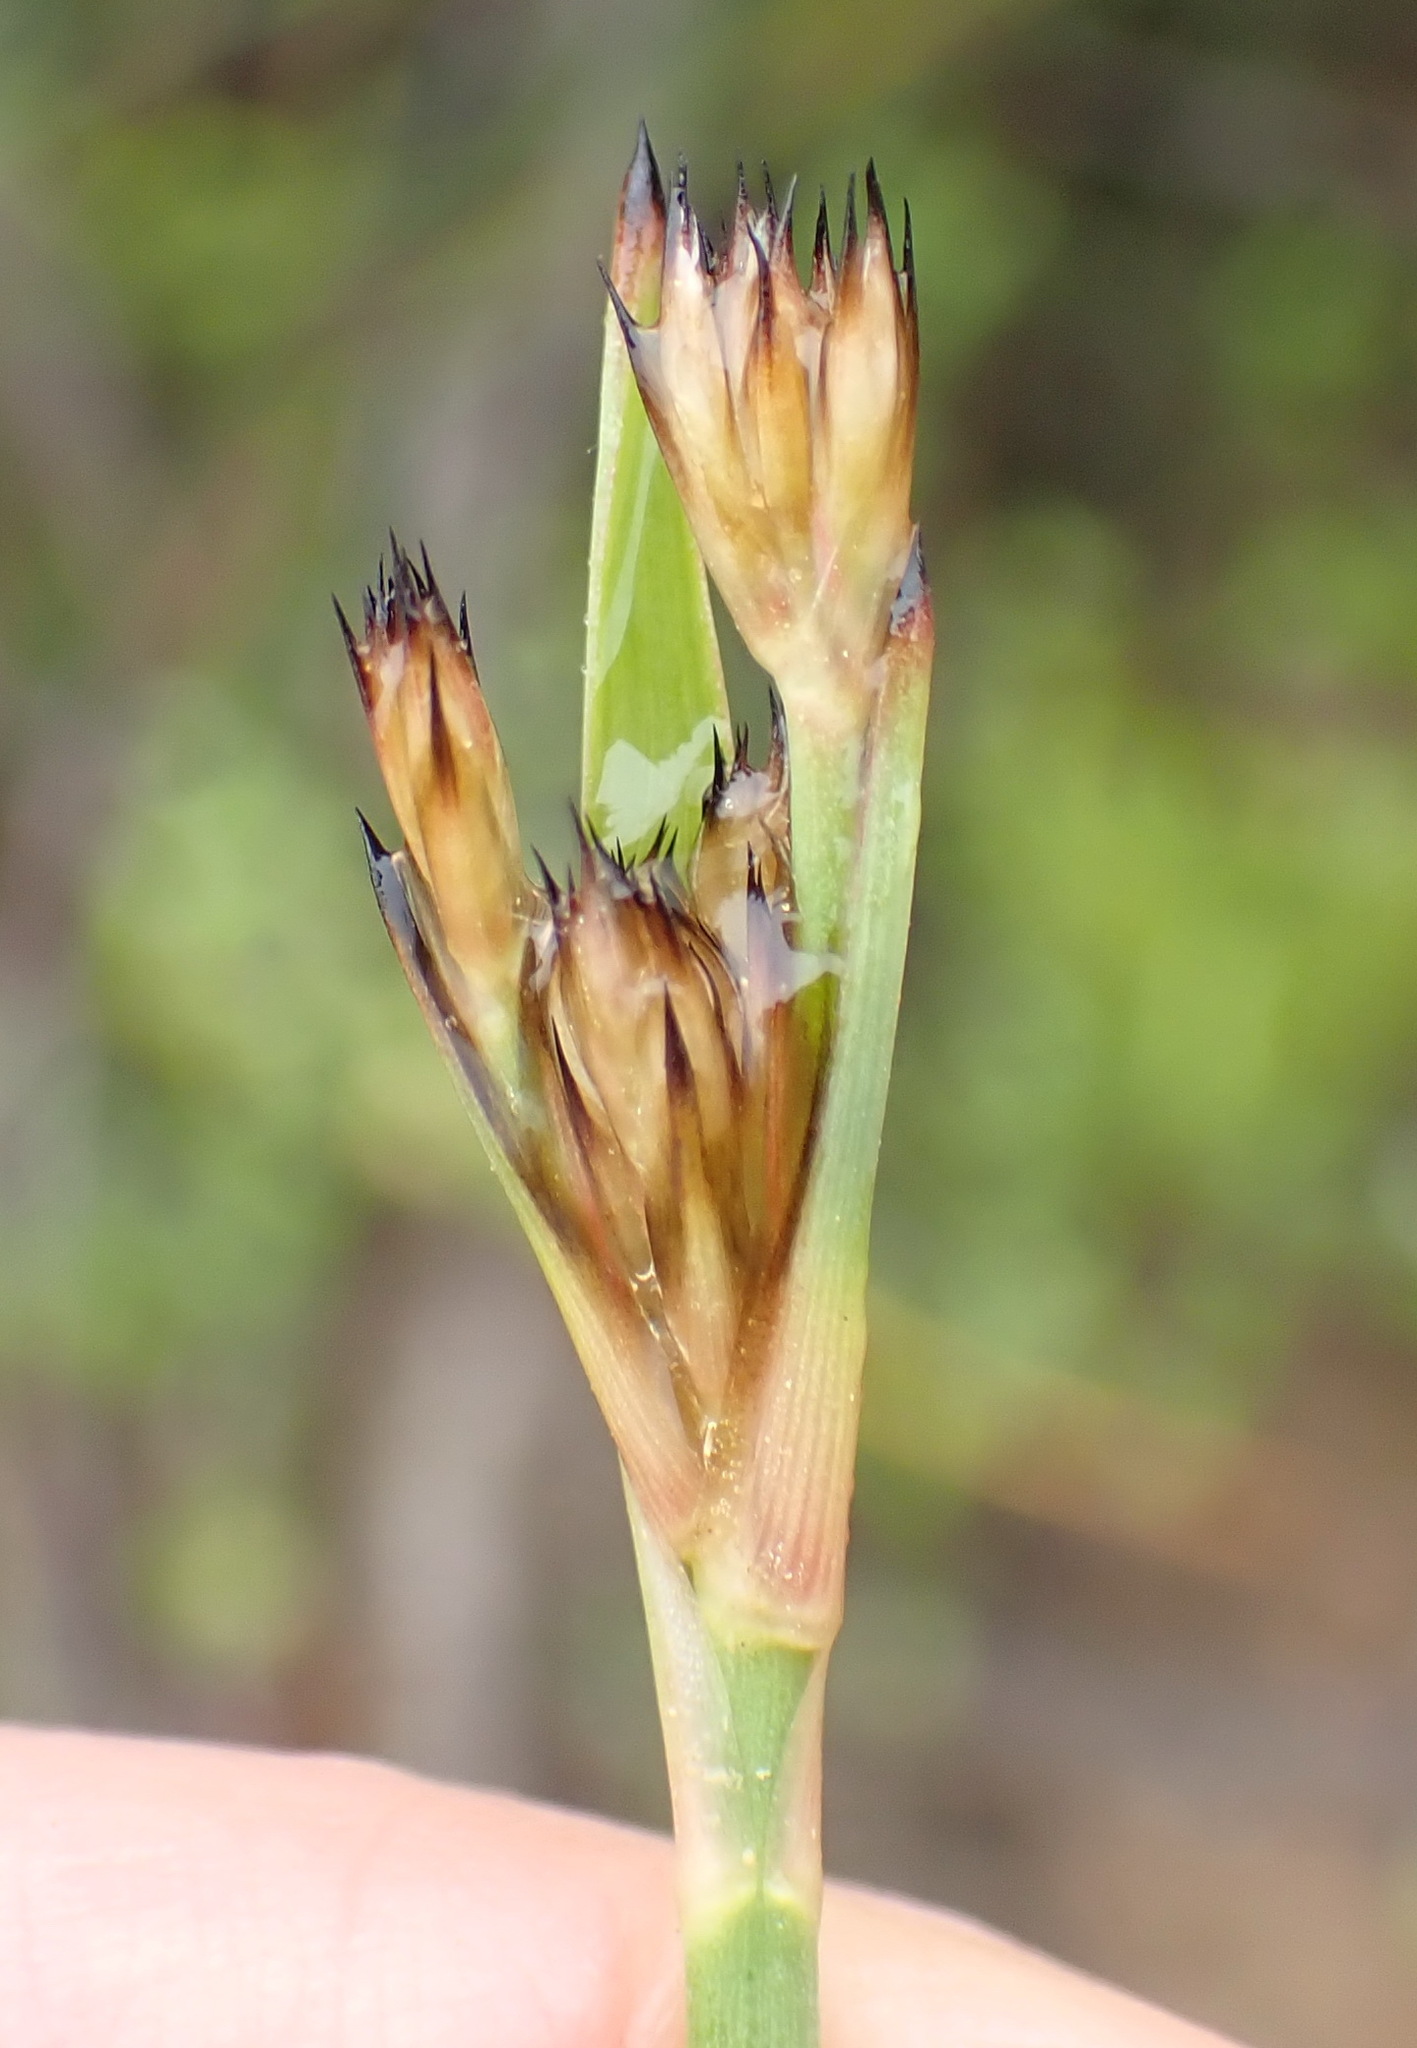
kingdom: Plantae
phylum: Tracheophyta
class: Liliopsida
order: Poales
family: Juncaceae
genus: Juncus
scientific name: Juncus lomatophyllus
